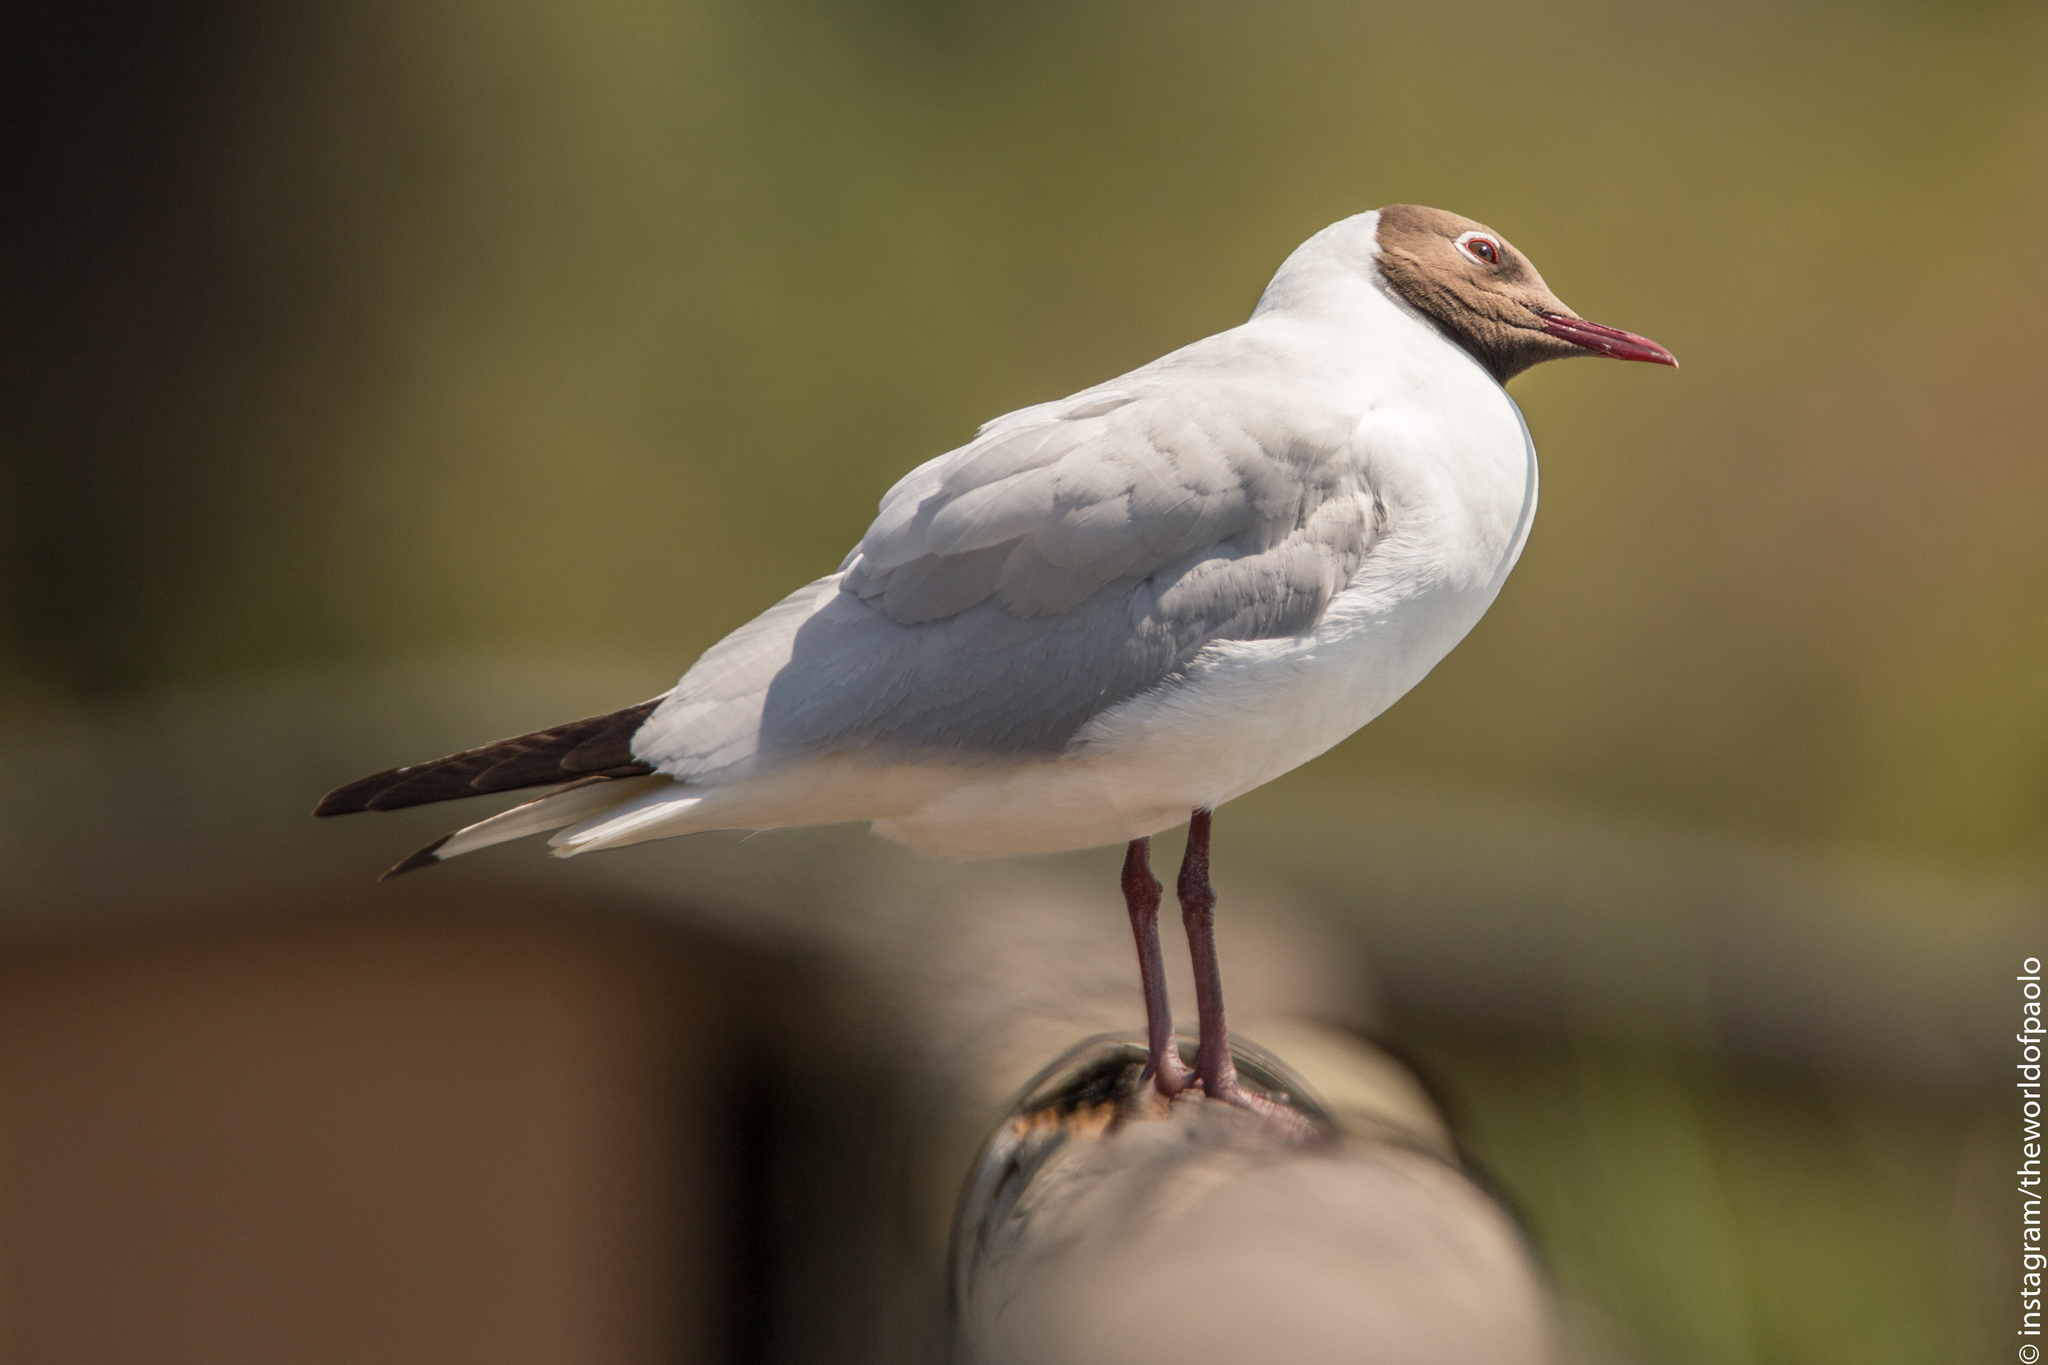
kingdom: Animalia
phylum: Chordata
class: Aves
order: Charadriiformes
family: Laridae
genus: Chroicocephalus
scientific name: Chroicocephalus ridibundus
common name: Black-headed gull
